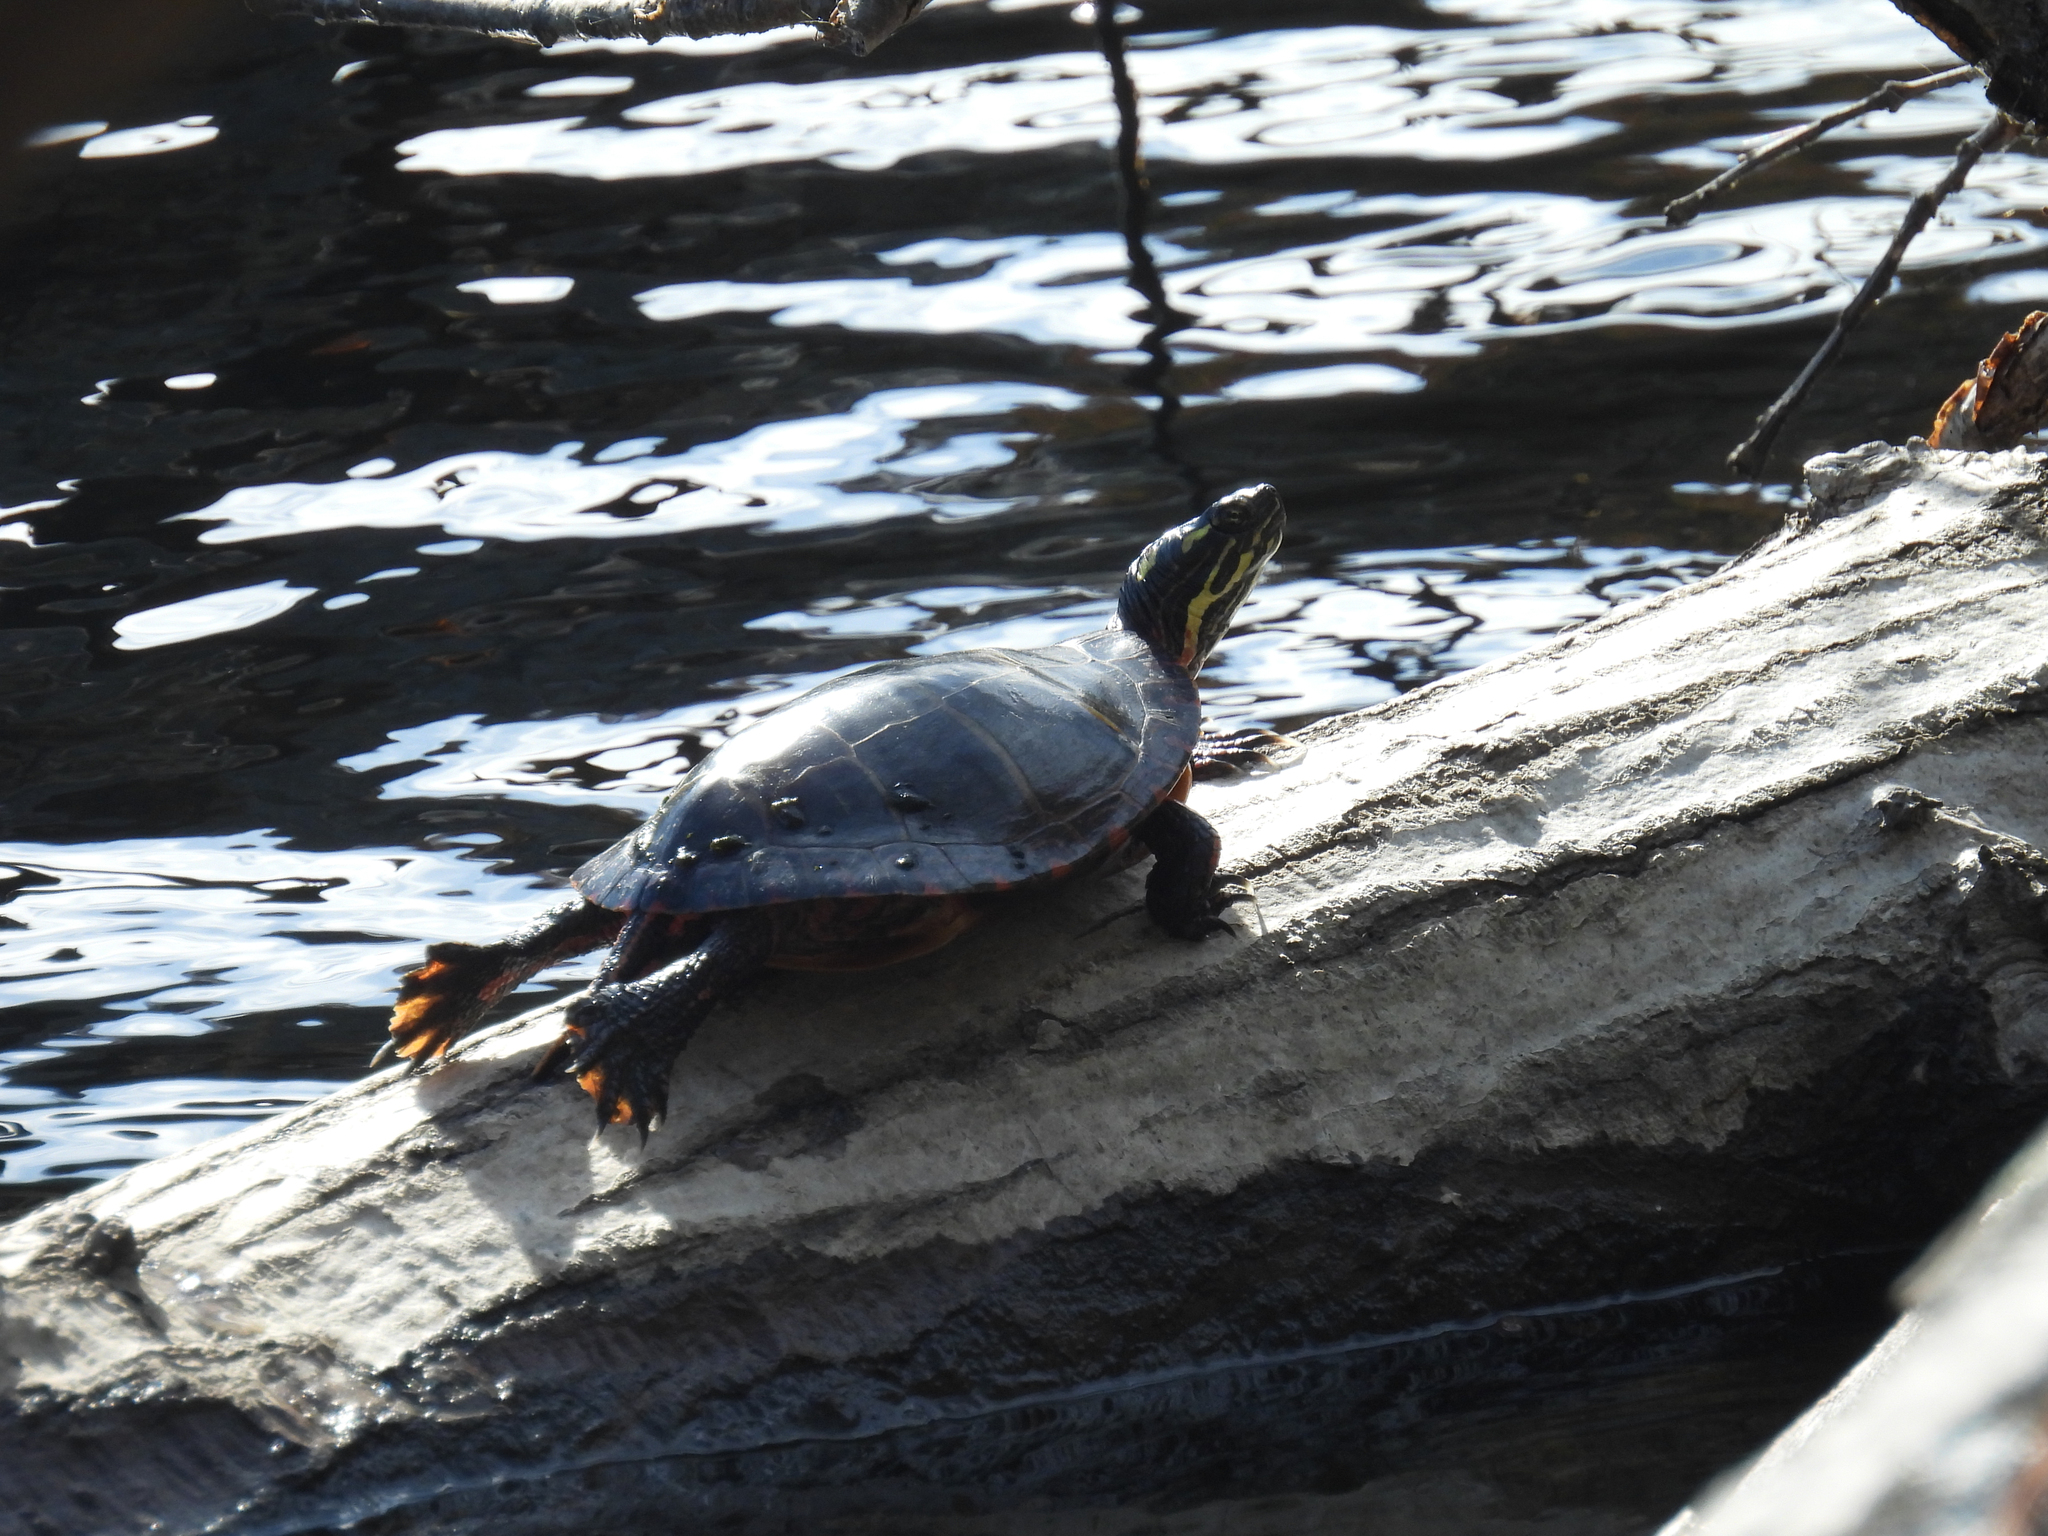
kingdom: Animalia
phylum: Chordata
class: Testudines
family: Emydidae
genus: Chrysemys
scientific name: Chrysemys picta
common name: Painted turtle
